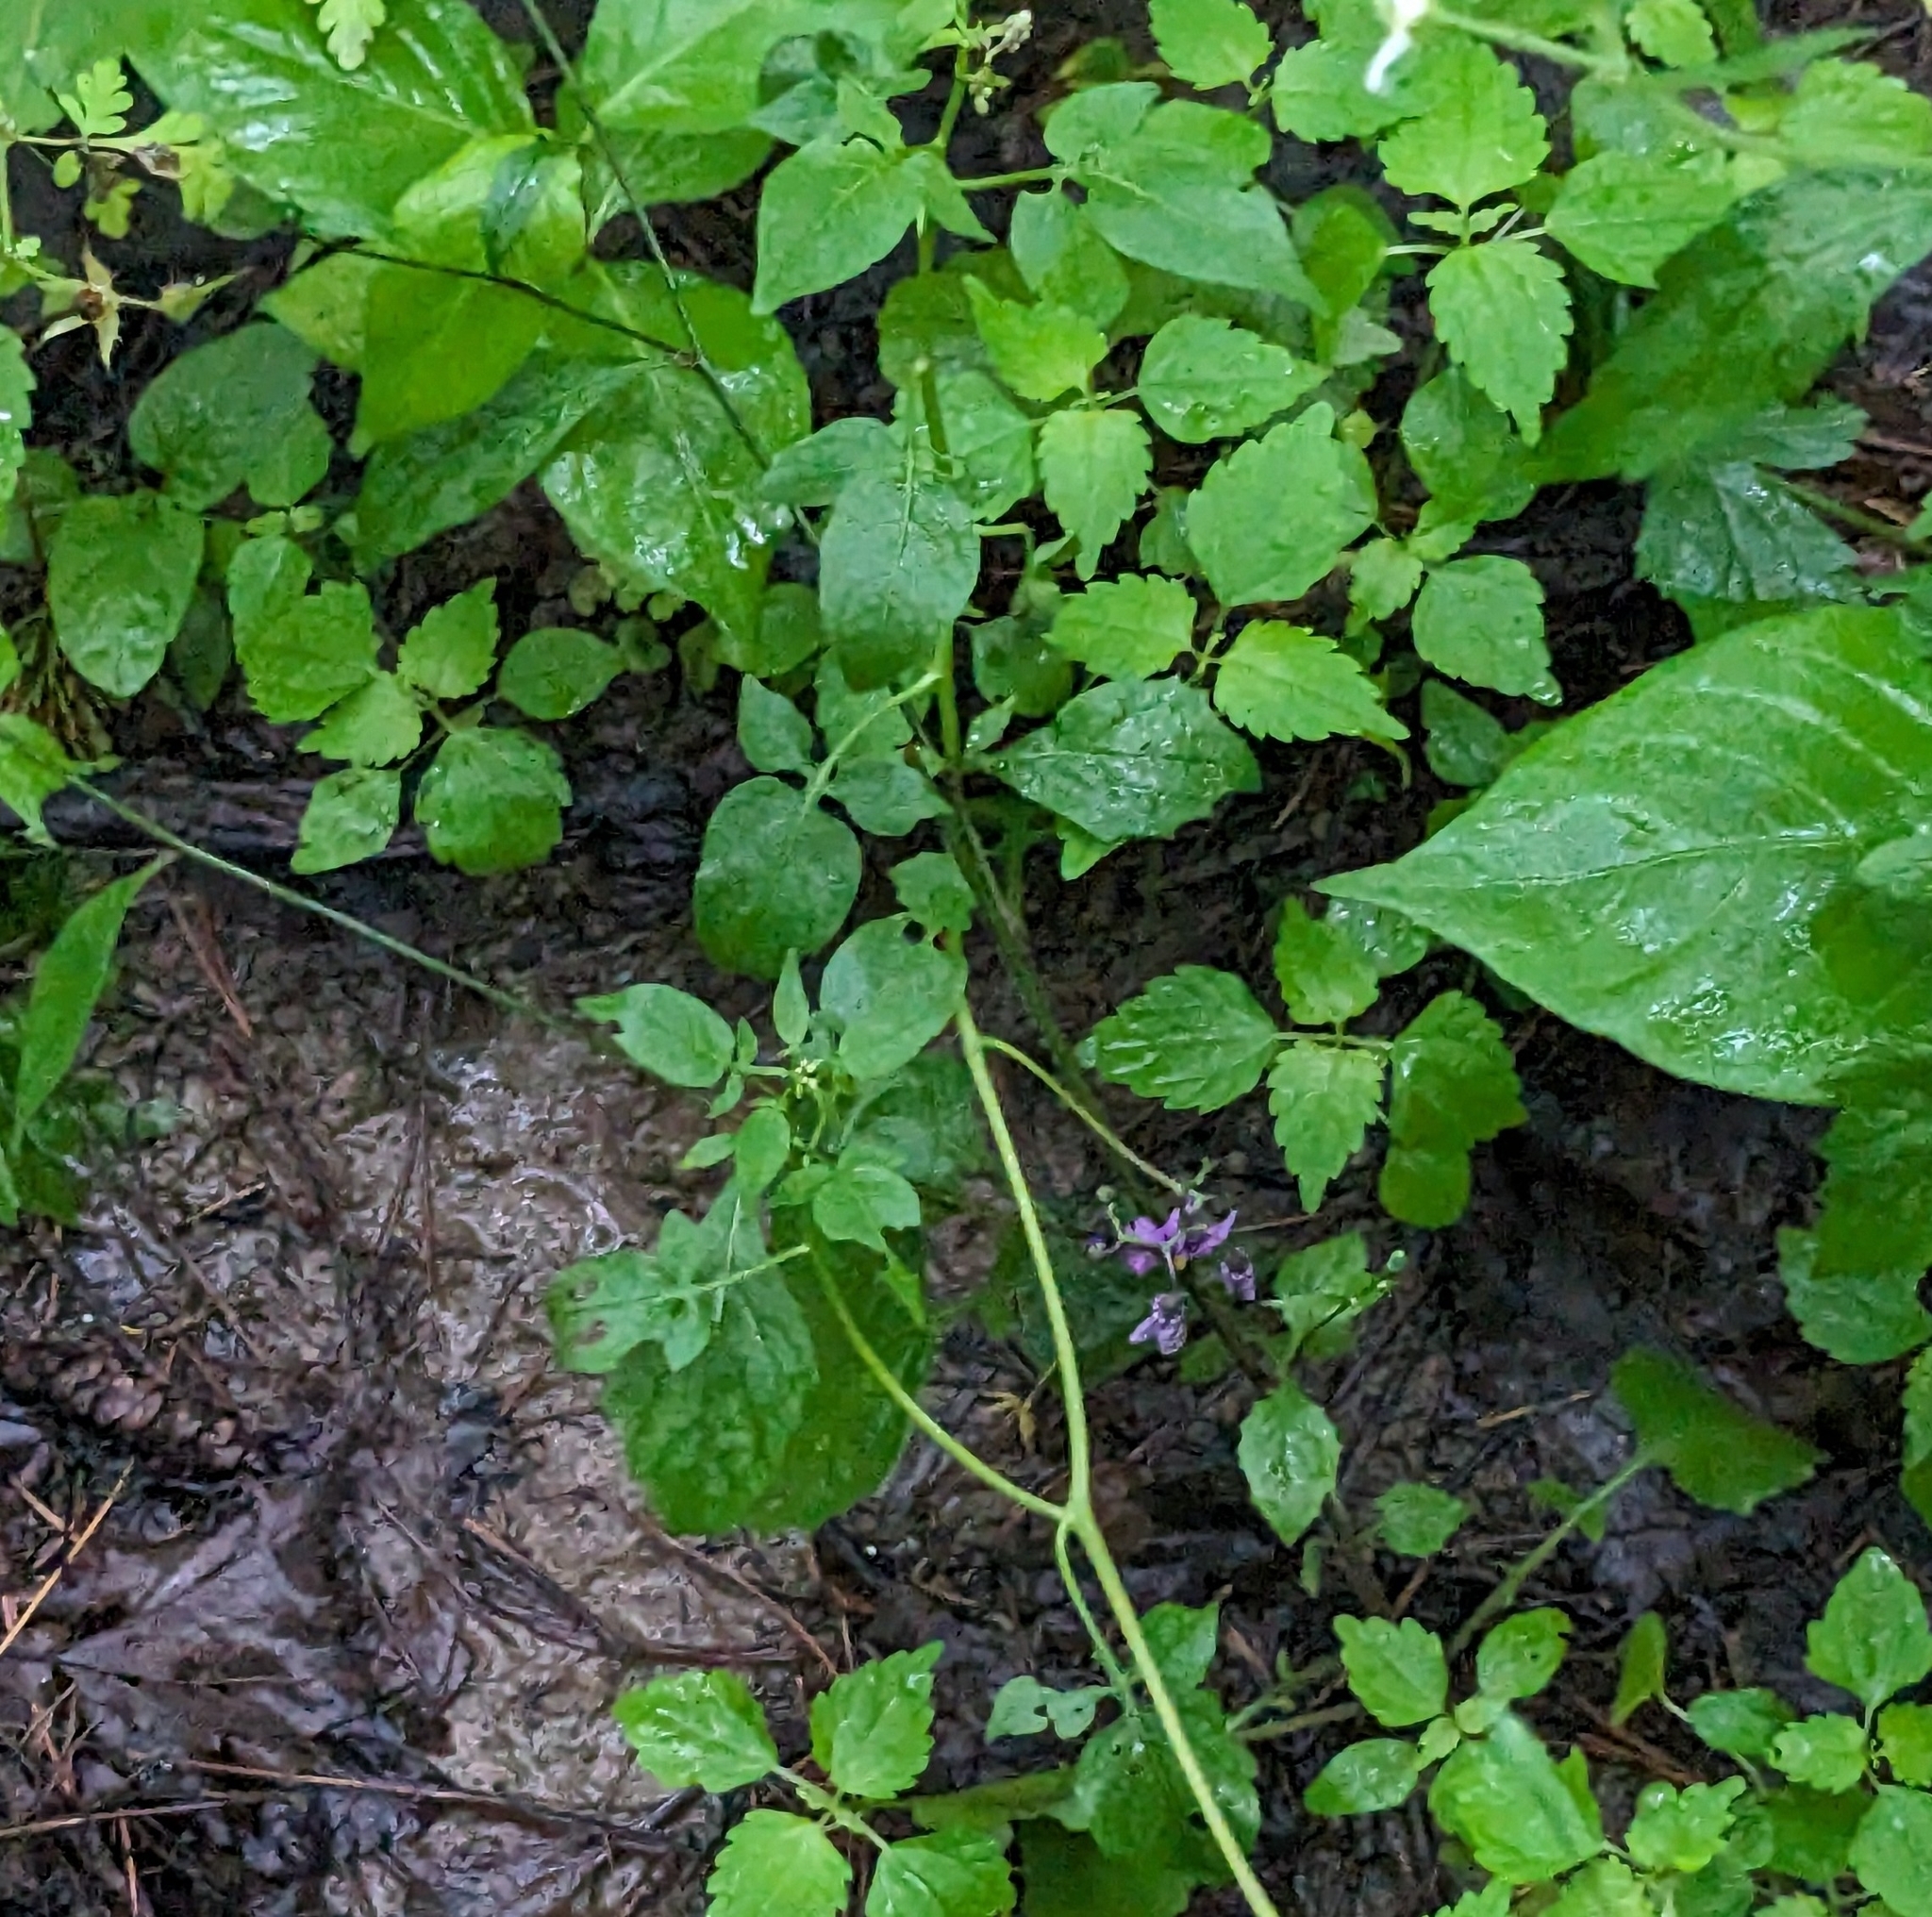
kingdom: Plantae
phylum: Tracheophyta
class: Magnoliopsida
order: Solanales
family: Solanaceae
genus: Solanum
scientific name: Solanum dulcamara
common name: Climbing nightshade
